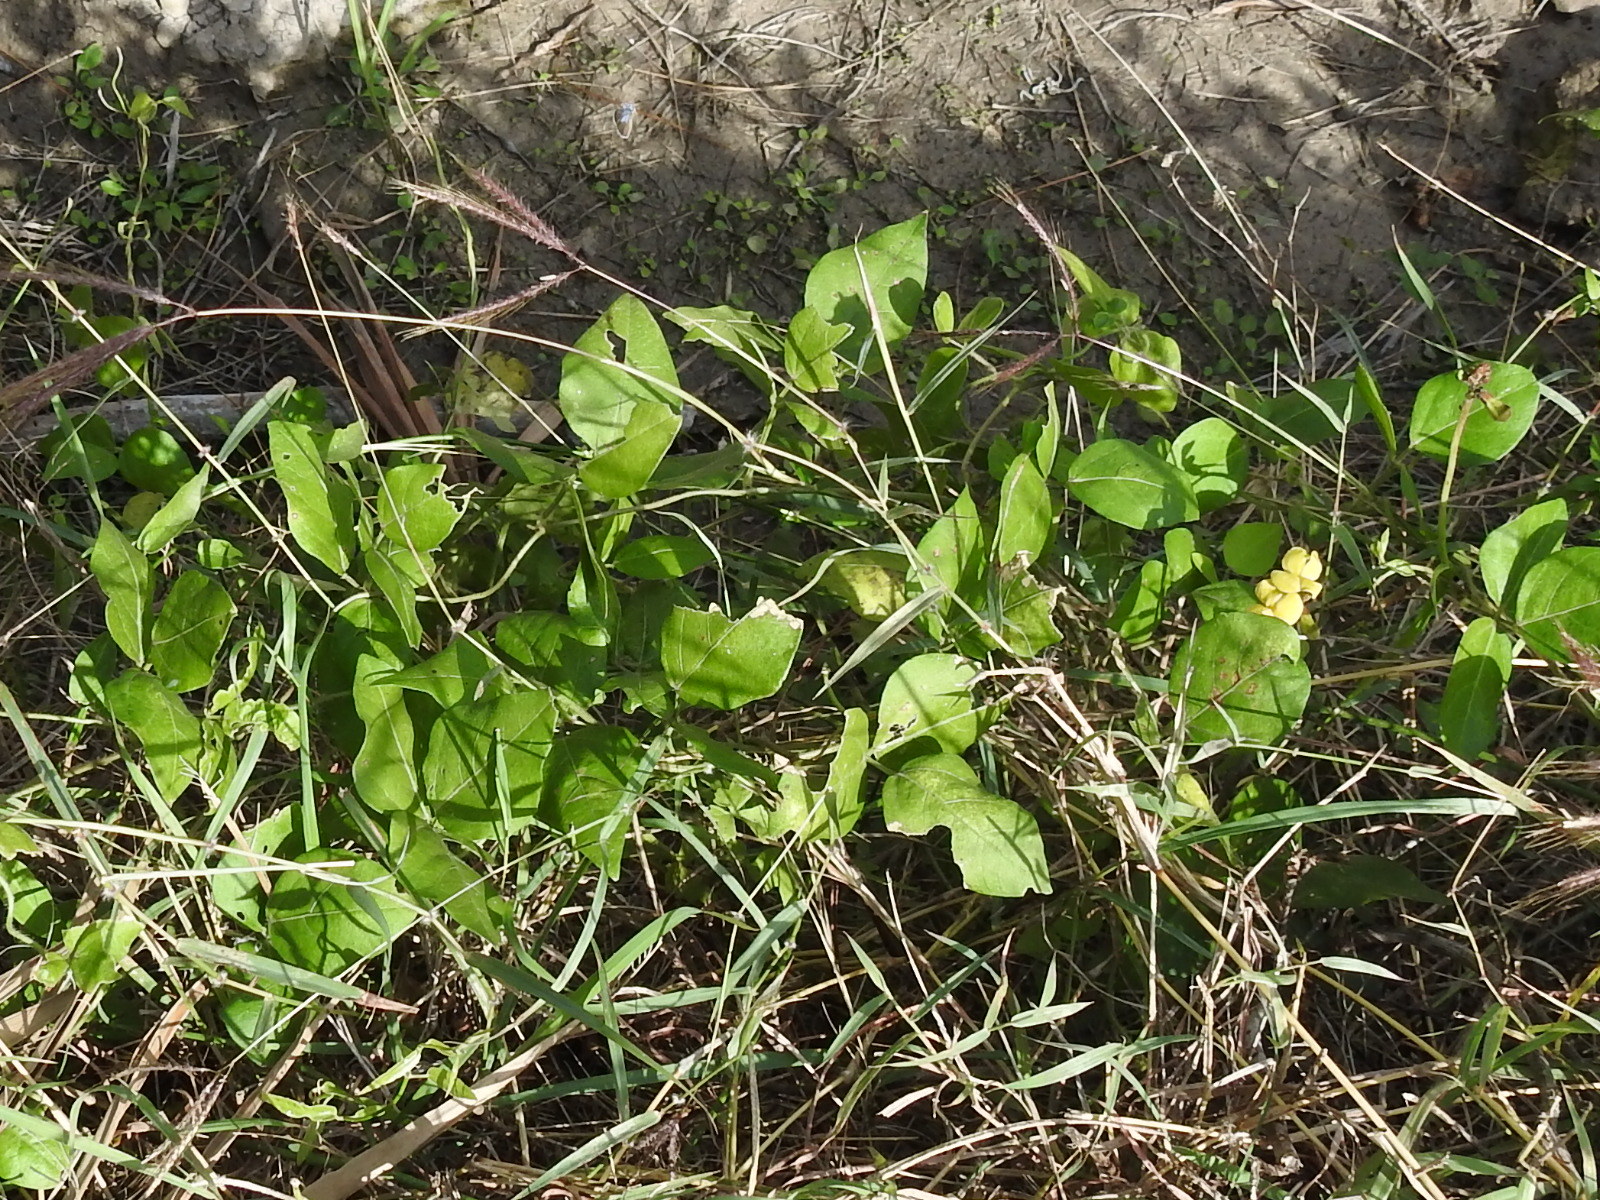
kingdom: Plantae
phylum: Tracheophyta
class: Magnoliopsida
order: Fabales
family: Fabaceae
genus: Vigna
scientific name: Vigna luteola
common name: Hairypod cowpea
